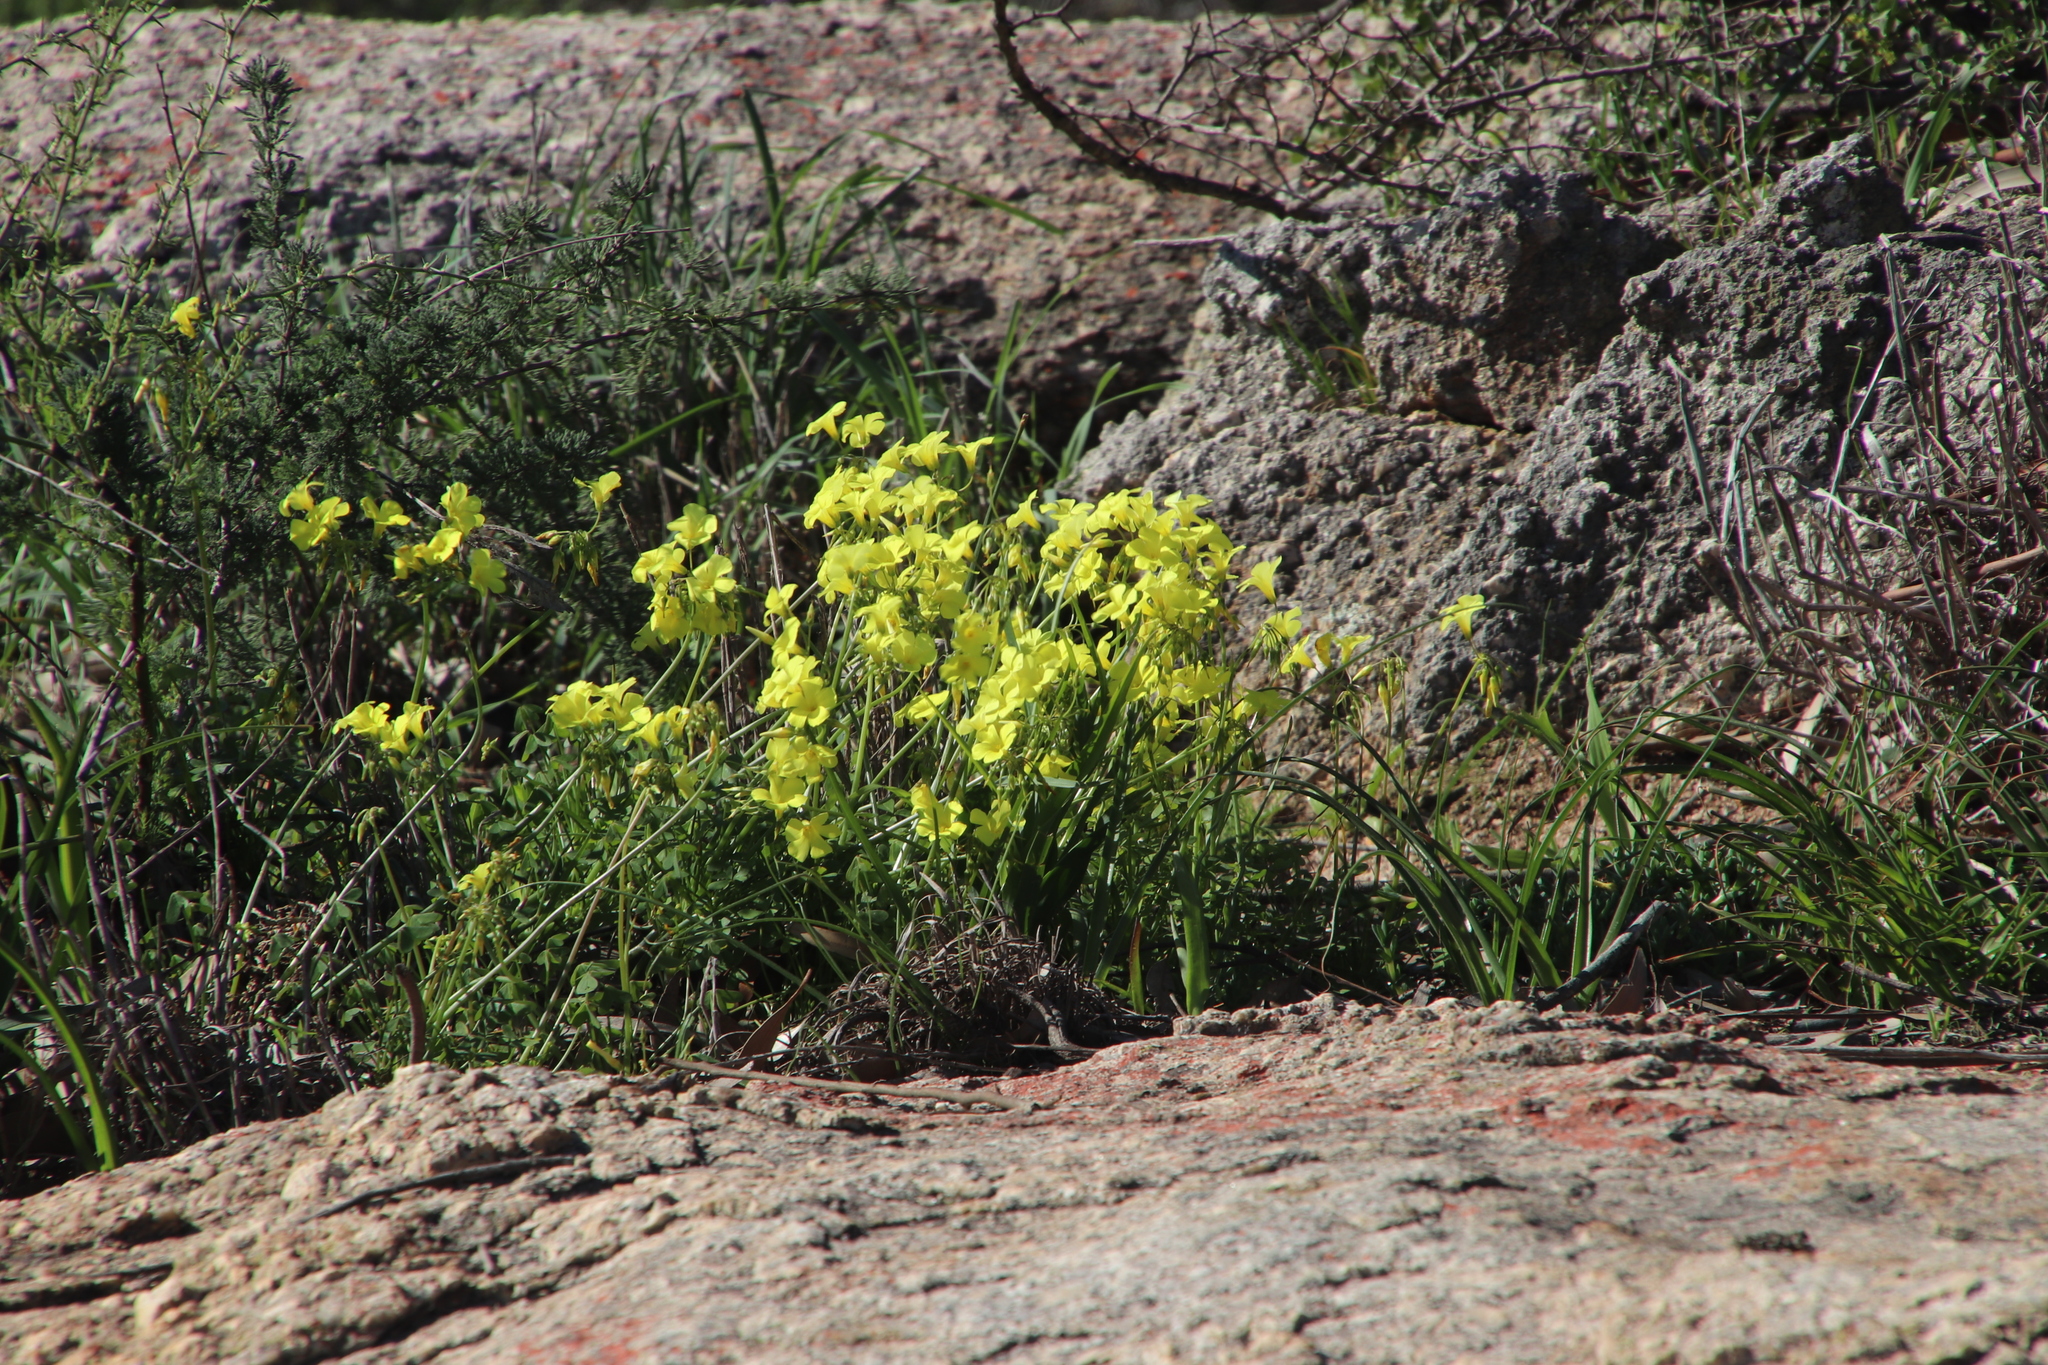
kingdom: Plantae
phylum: Tracheophyta
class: Magnoliopsida
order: Oxalidales
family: Oxalidaceae
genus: Oxalis
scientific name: Oxalis pes-caprae
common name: Bermuda-buttercup
